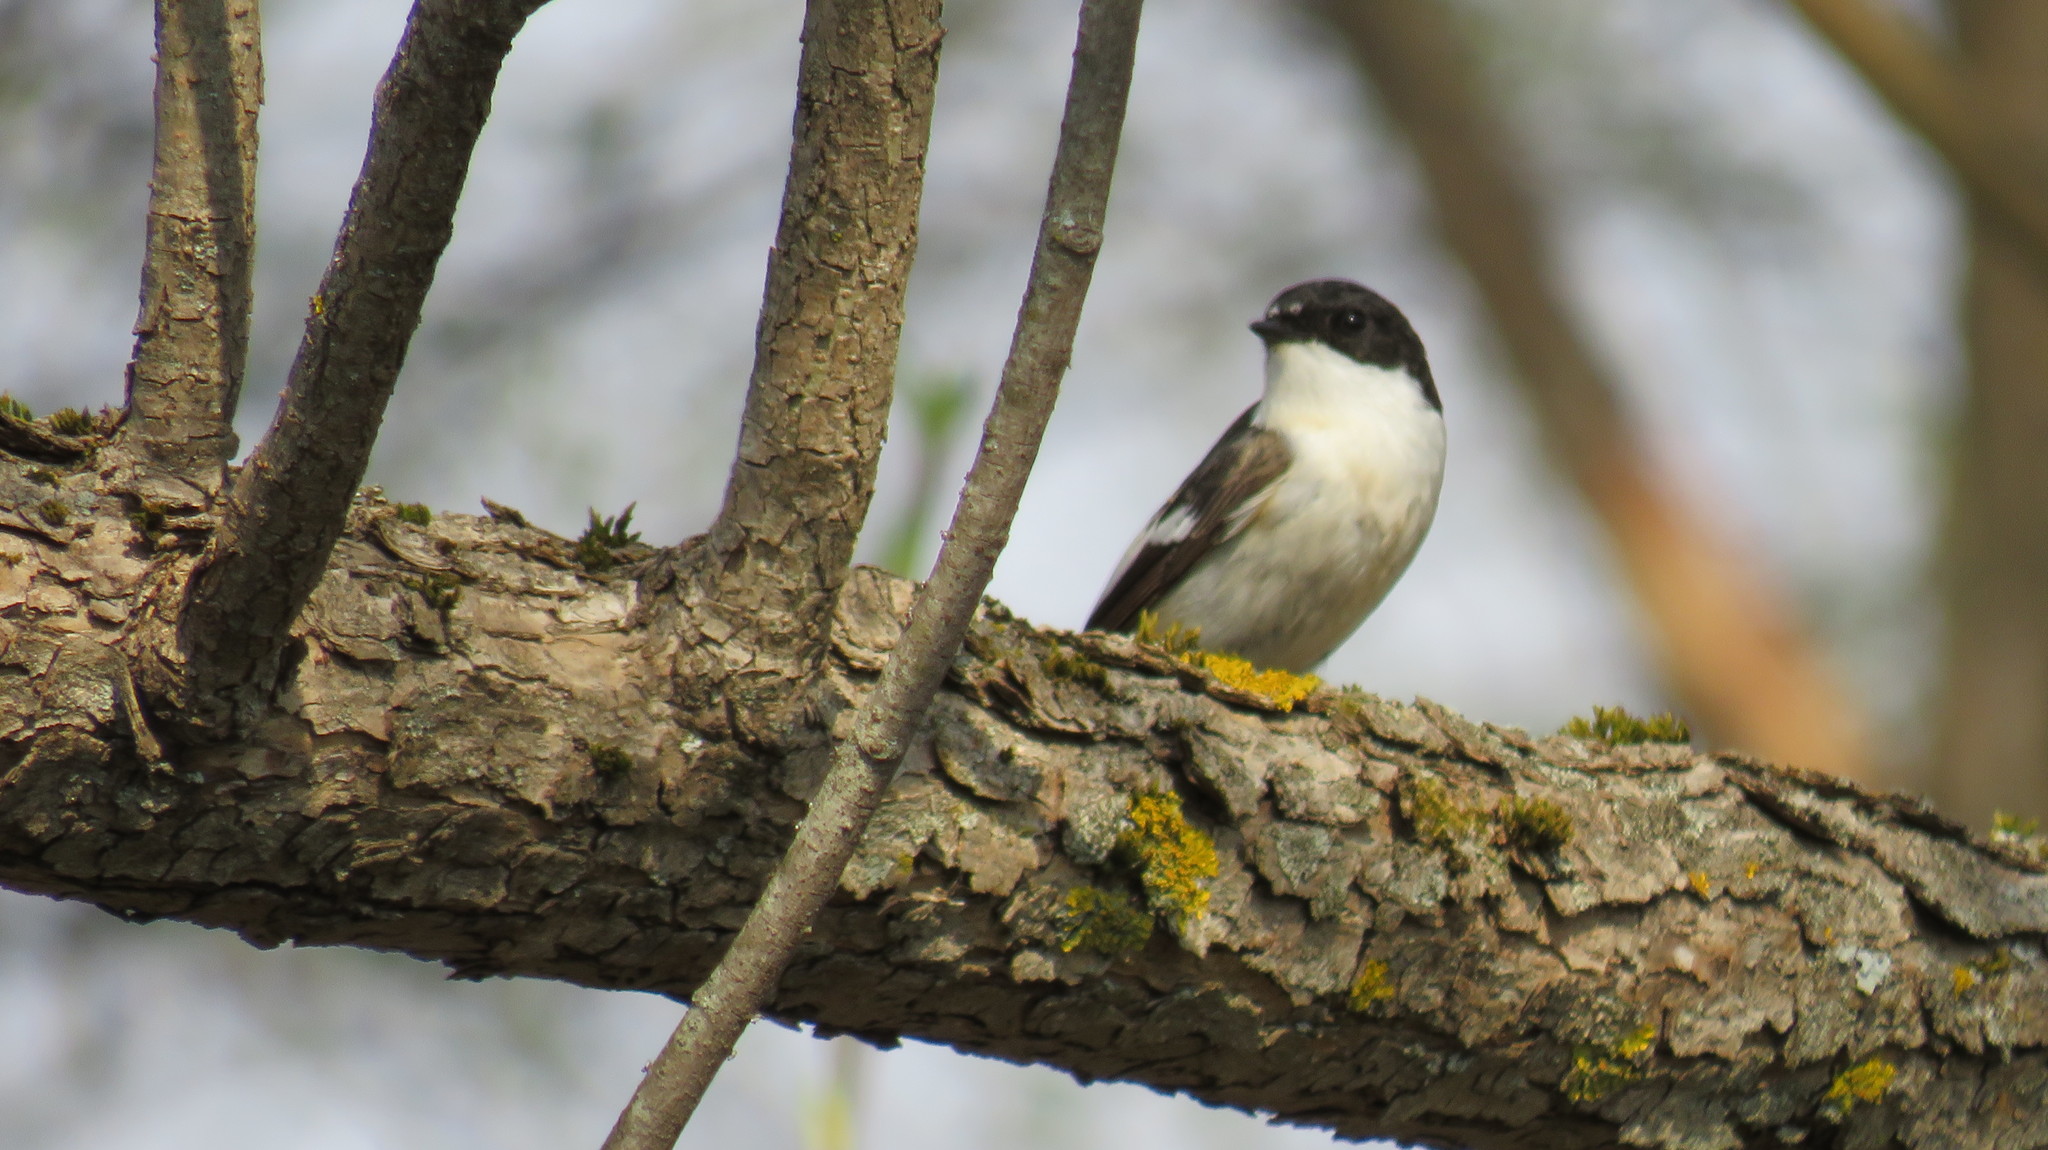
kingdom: Animalia
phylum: Chordata
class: Aves
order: Passeriformes
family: Muscicapidae
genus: Ficedula
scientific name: Ficedula hypoleuca
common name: European pied flycatcher
